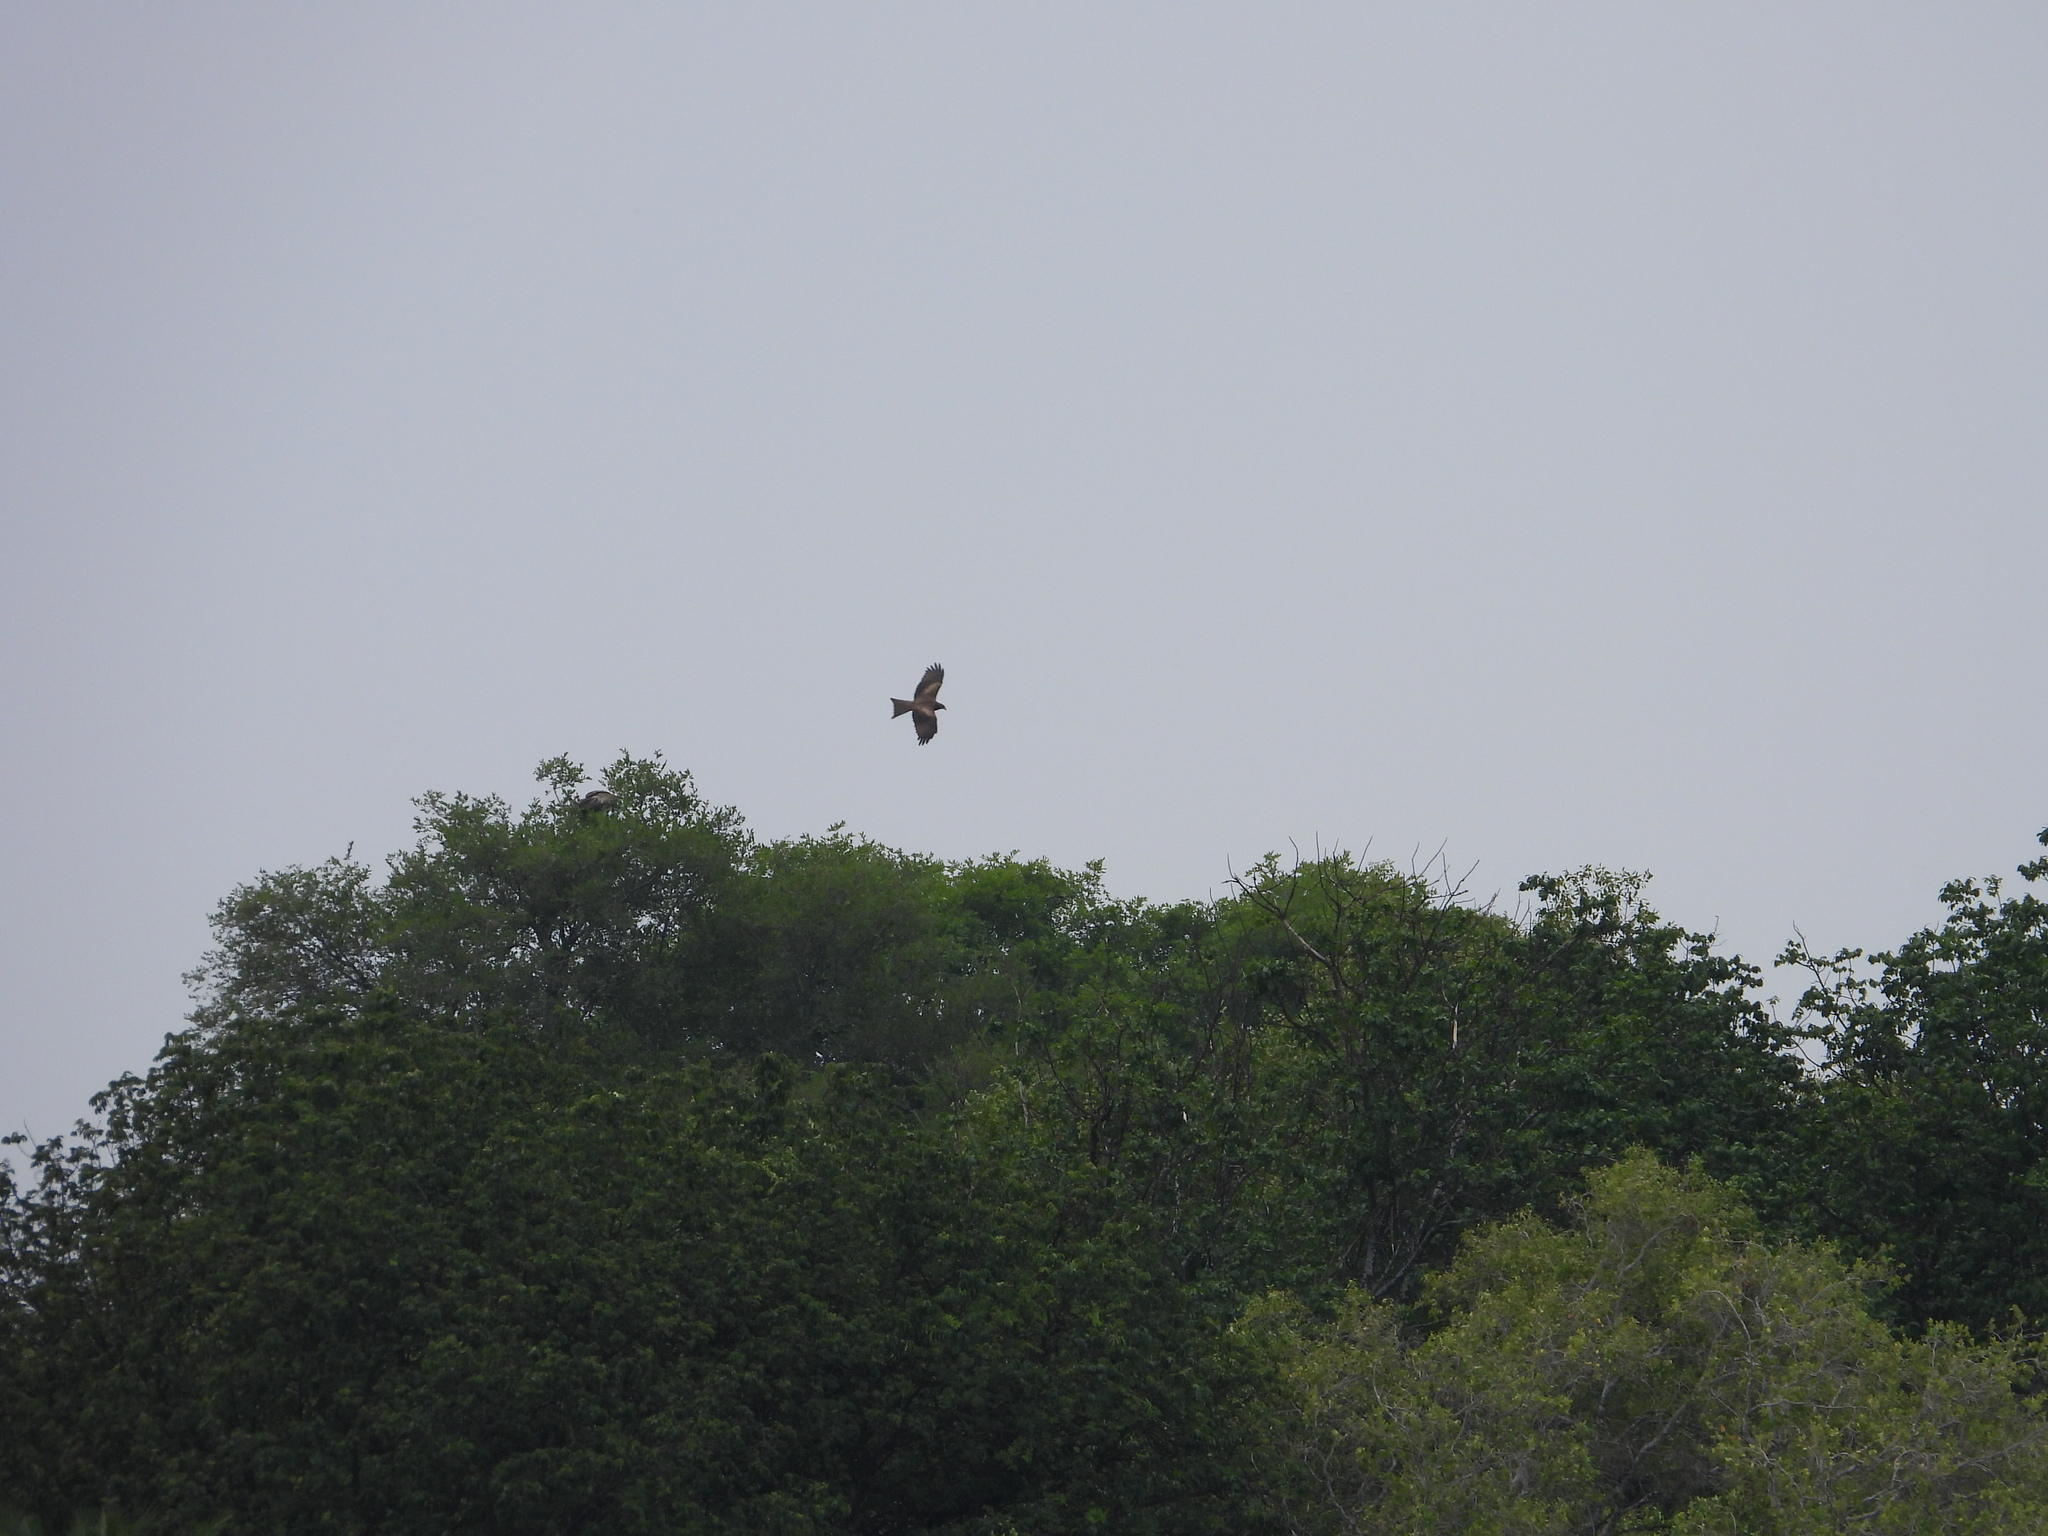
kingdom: Animalia
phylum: Chordata
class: Aves
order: Accipitriformes
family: Accipitridae
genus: Milvus
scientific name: Milvus migrans
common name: Black kite
